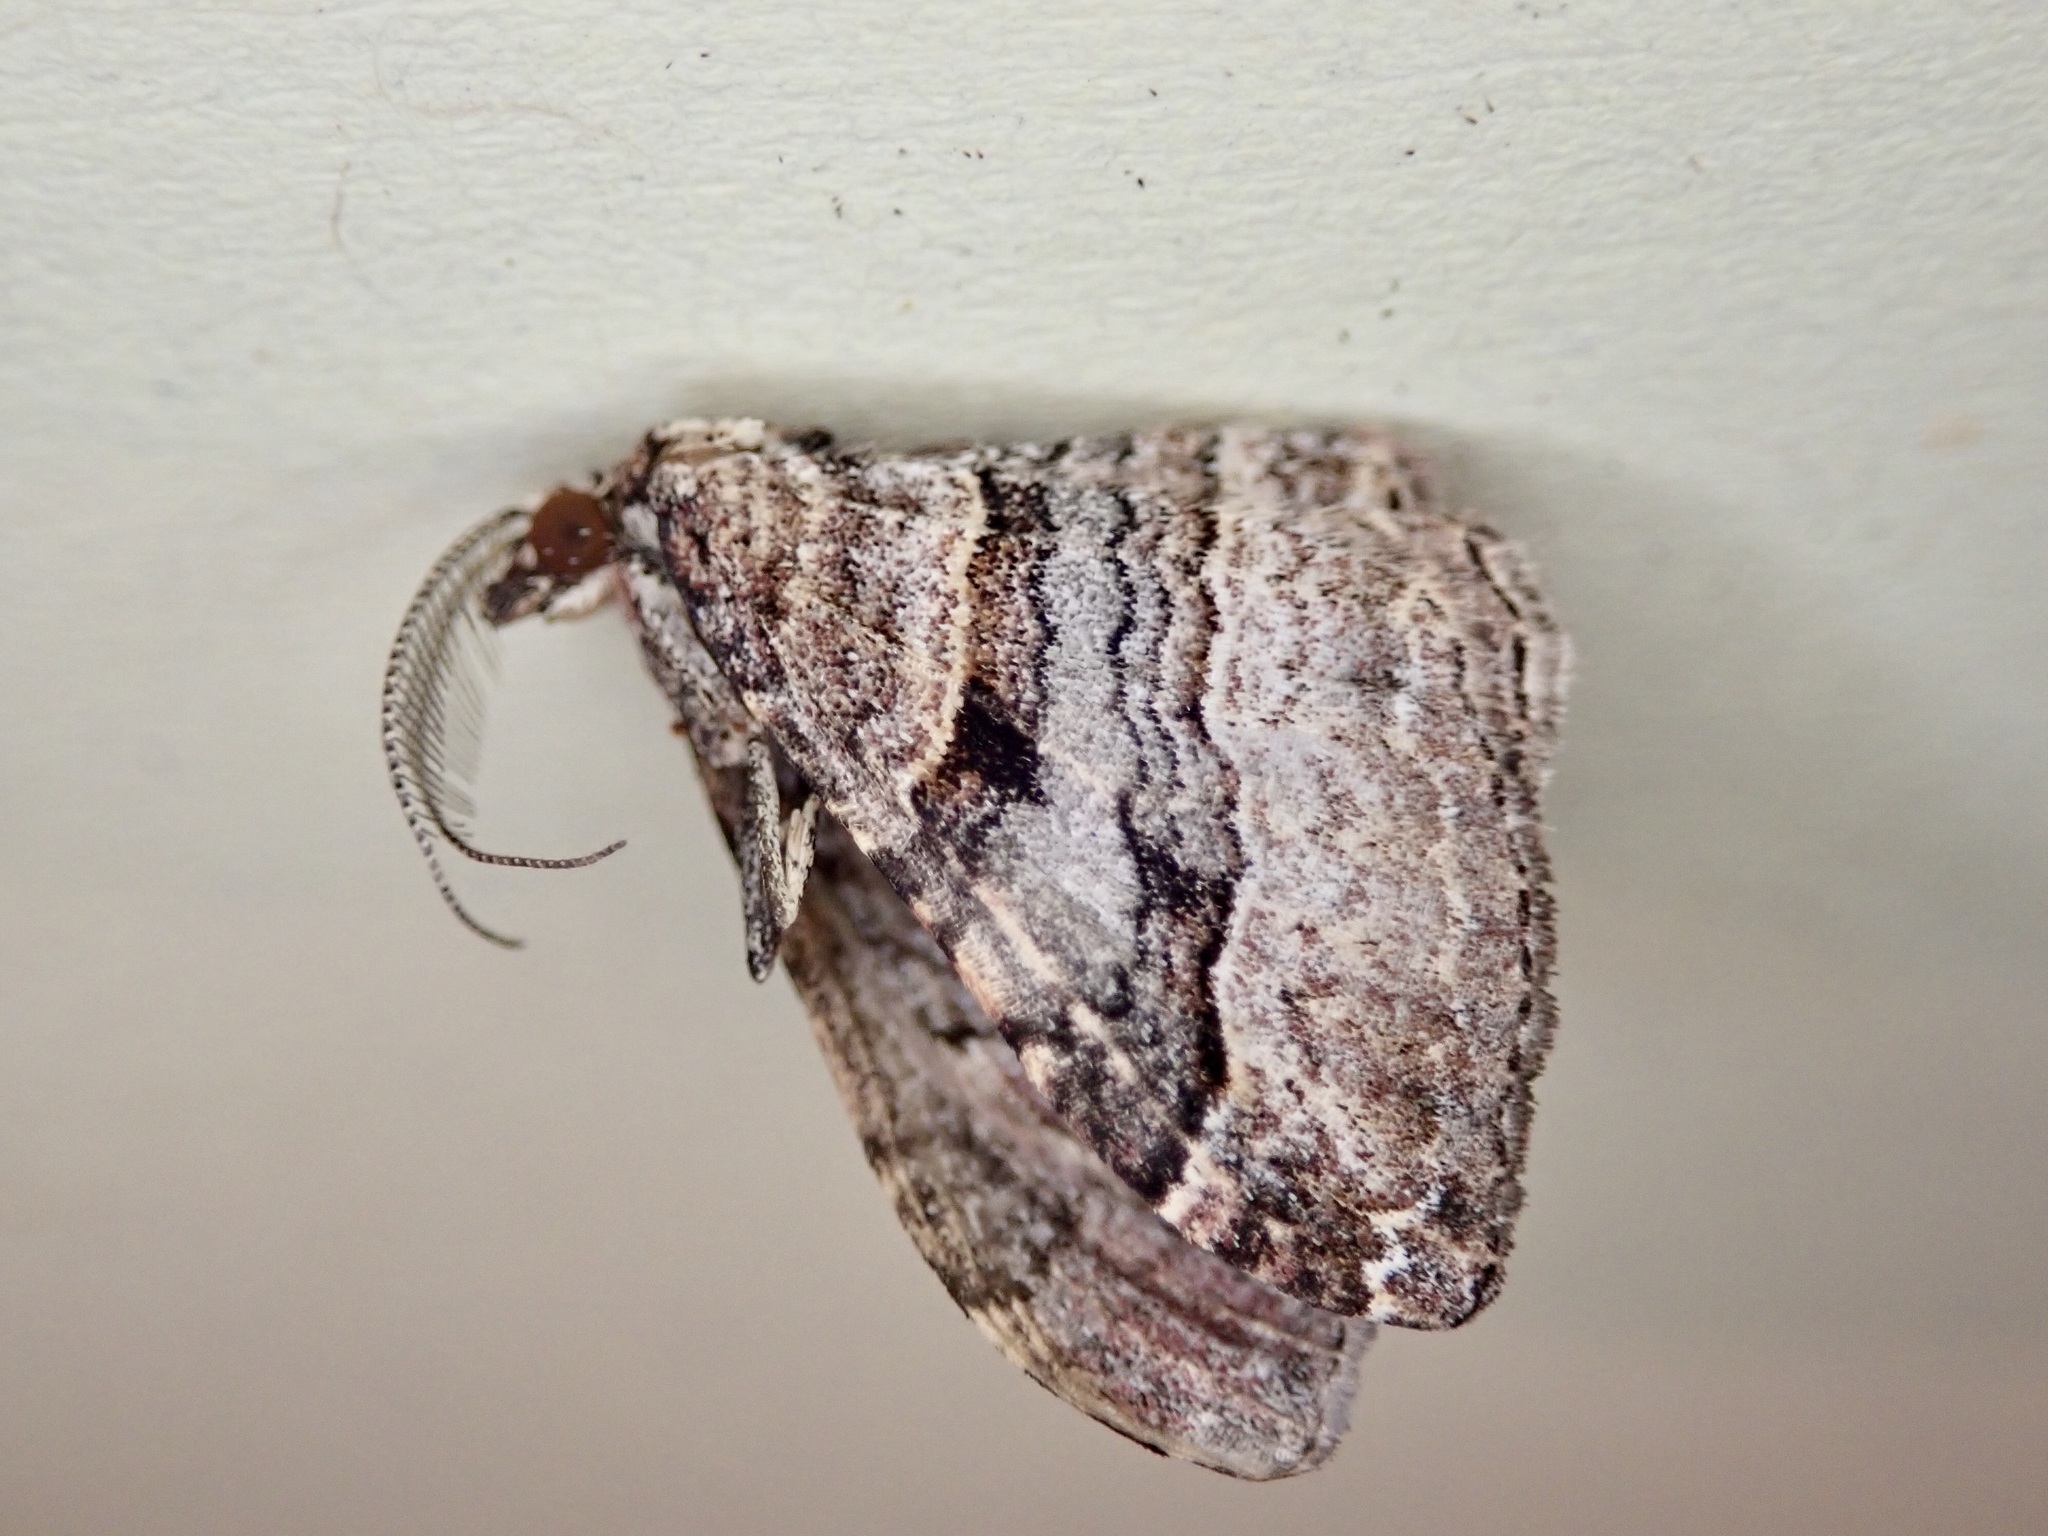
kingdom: Animalia
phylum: Arthropoda
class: Insecta
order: Lepidoptera
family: Geometridae
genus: Epyaxa
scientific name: Epyaxa lucidata
